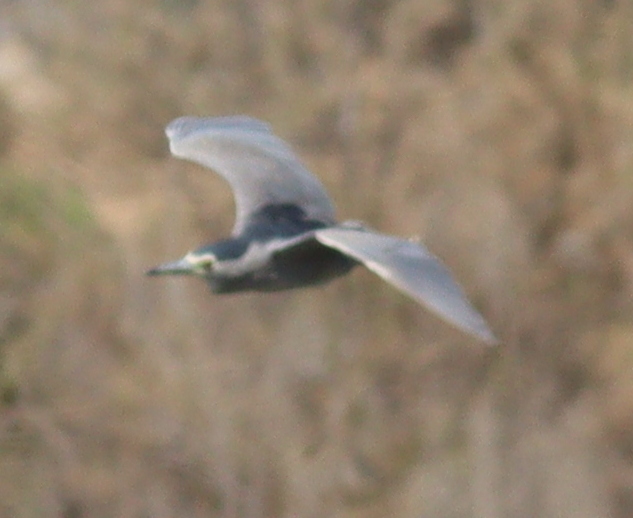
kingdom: Animalia
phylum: Chordata
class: Aves
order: Pelecaniformes
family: Ardeidae
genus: Nycticorax
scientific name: Nycticorax nycticorax
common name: Black-crowned night heron
